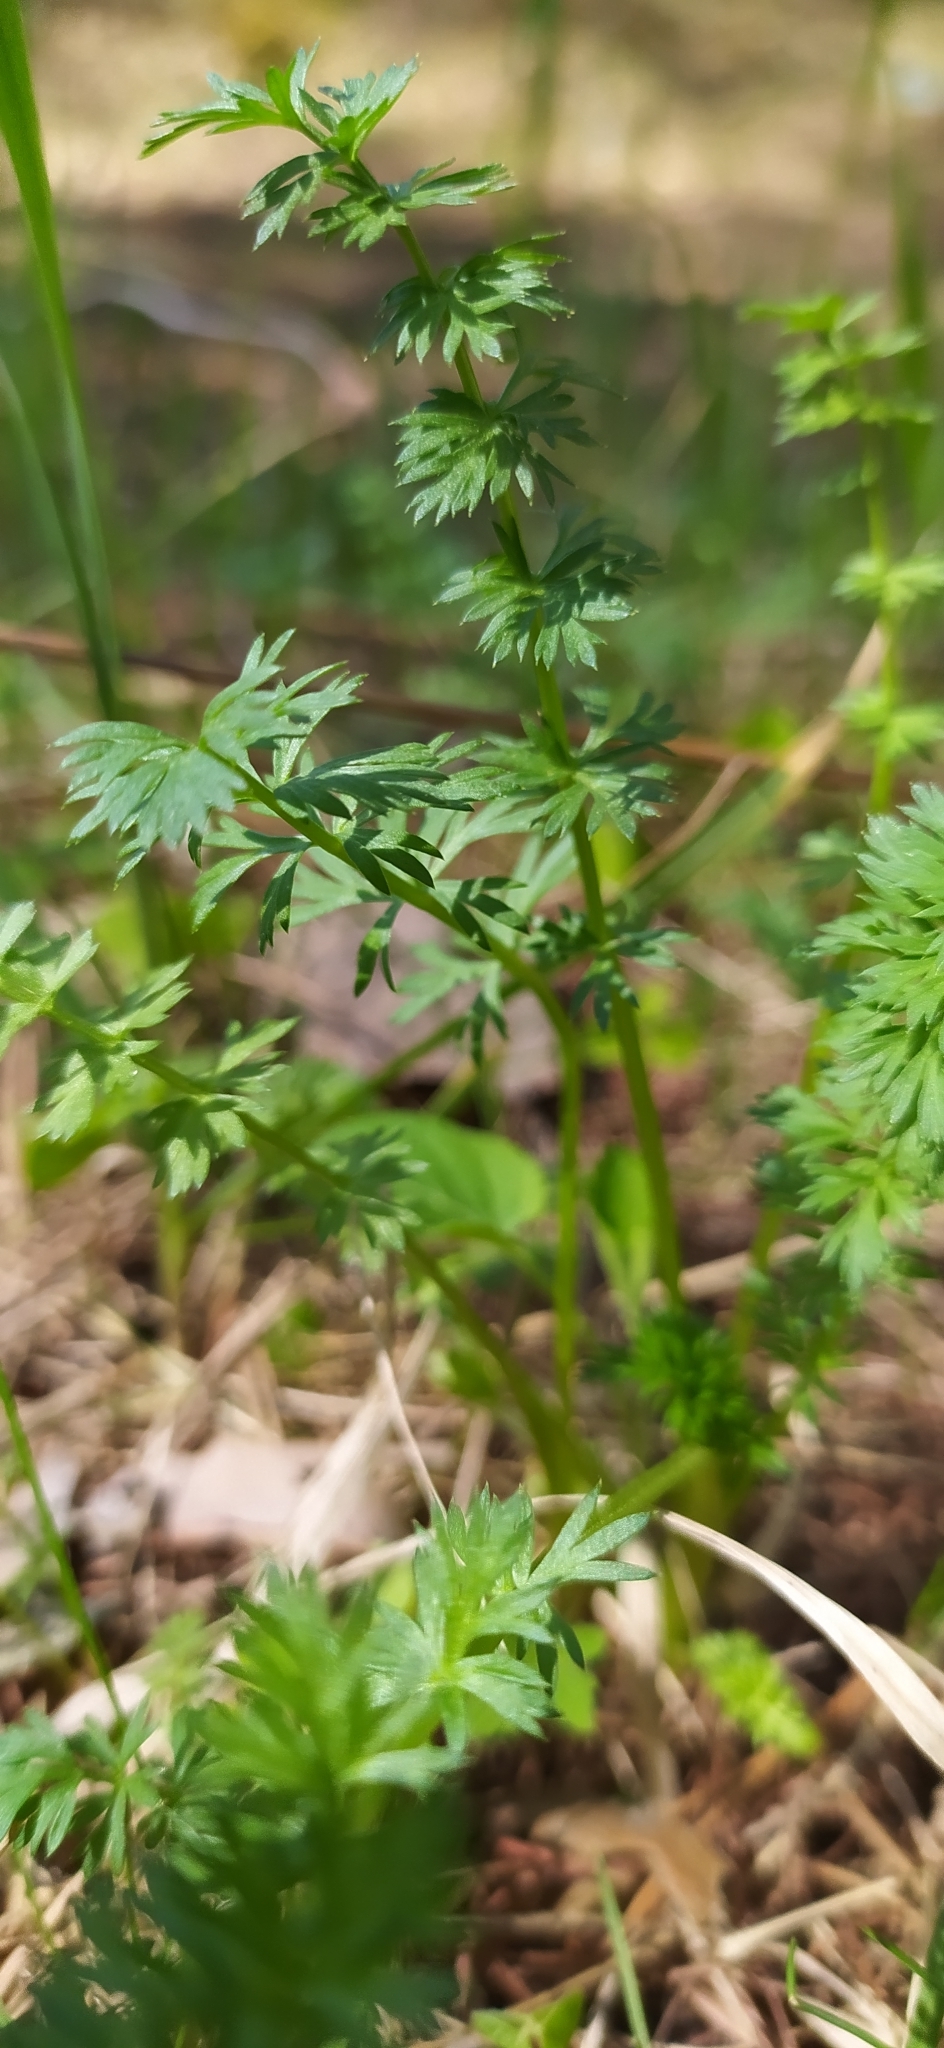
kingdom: Plantae
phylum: Tracheophyta
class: Magnoliopsida
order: Apiales
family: Apiaceae
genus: Carum
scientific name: Carum carvi
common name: Caraway
